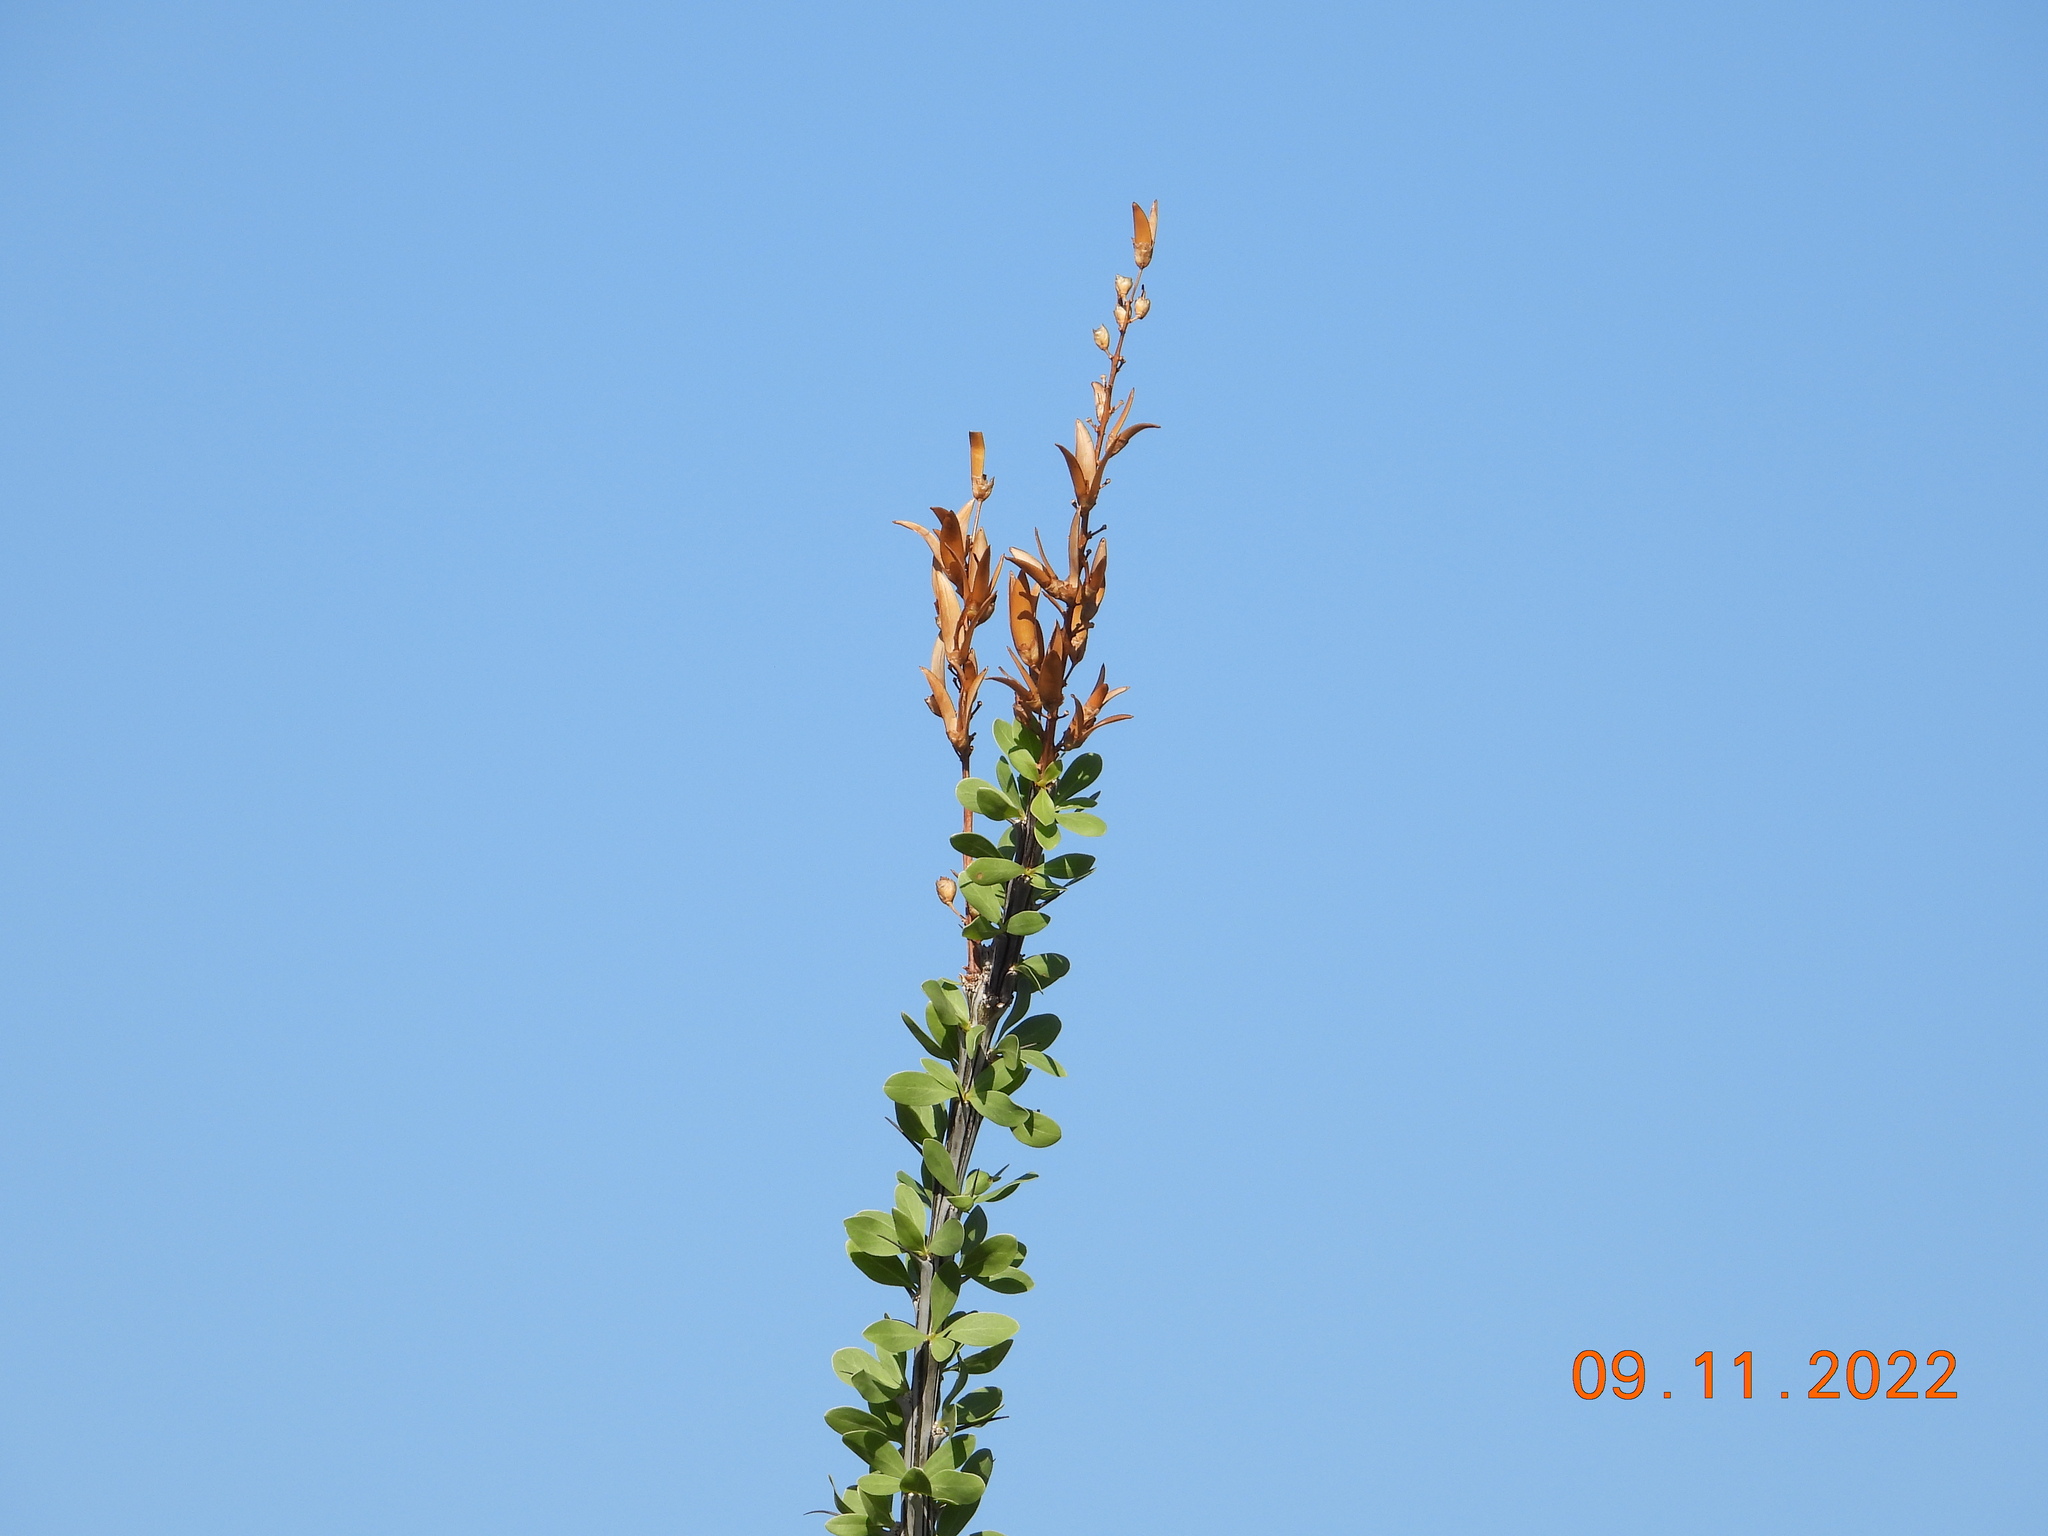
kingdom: Plantae
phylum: Tracheophyta
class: Magnoliopsida
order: Ericales
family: Fouquieriaceae
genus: Fouquieria
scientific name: Fouquieria splendens
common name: Vine-cactus
